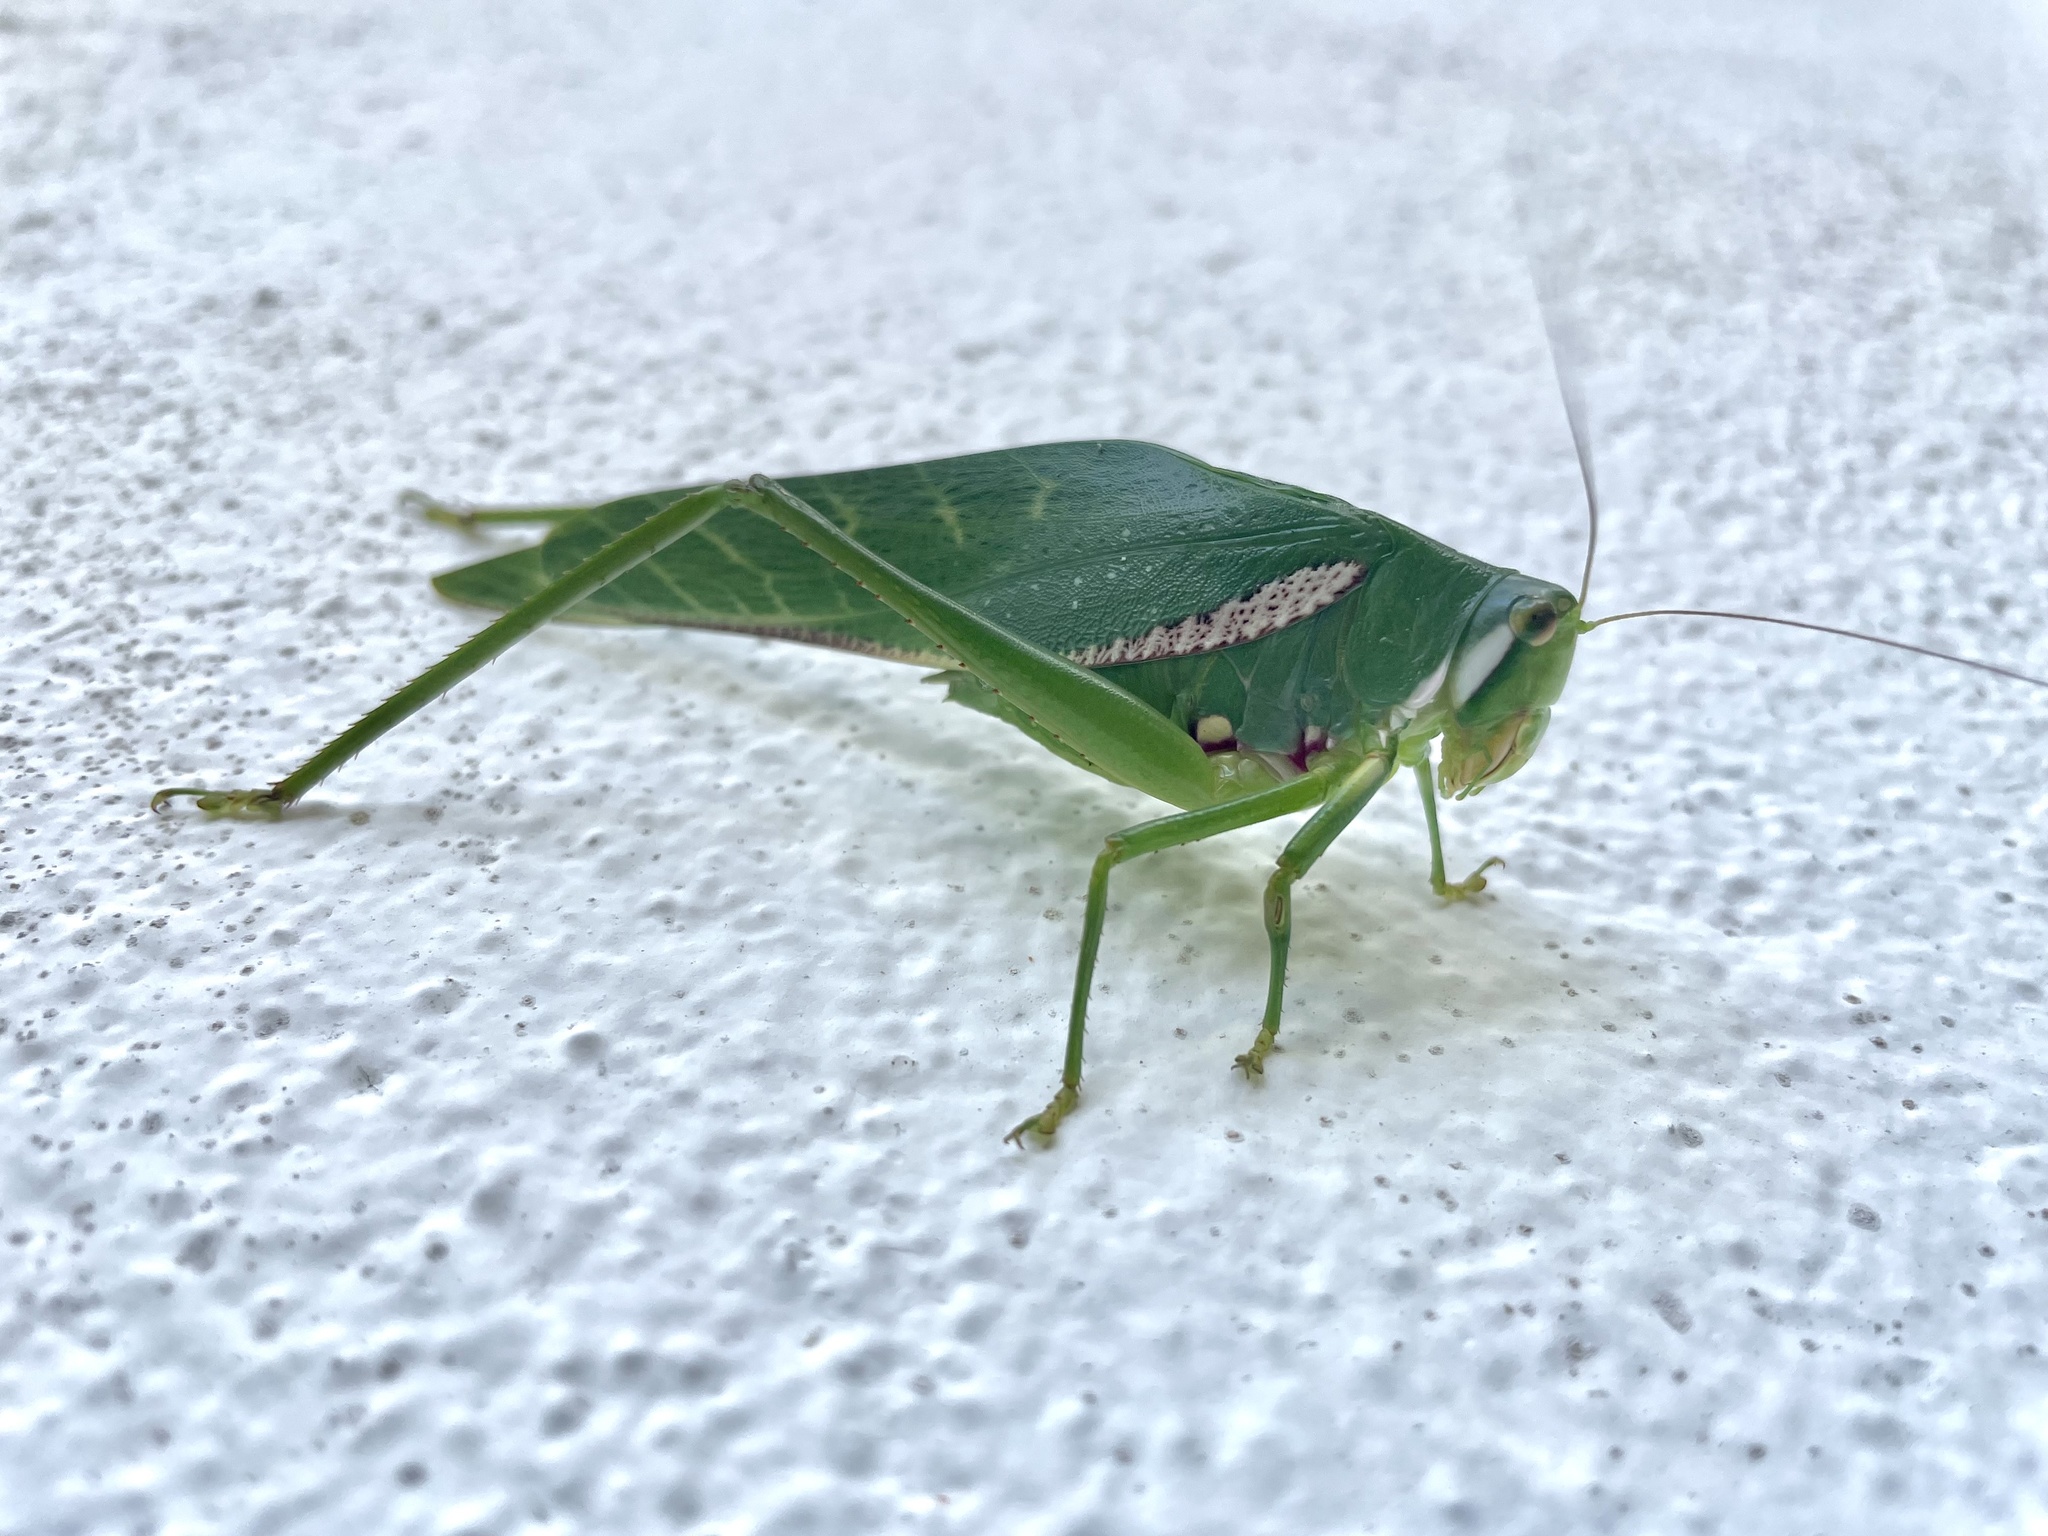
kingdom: Animalia
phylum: Arthropoda
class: Insecta
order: Orthoptera
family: Tettigoniidae
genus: Philophyllia
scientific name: Philophyllia guttulata
